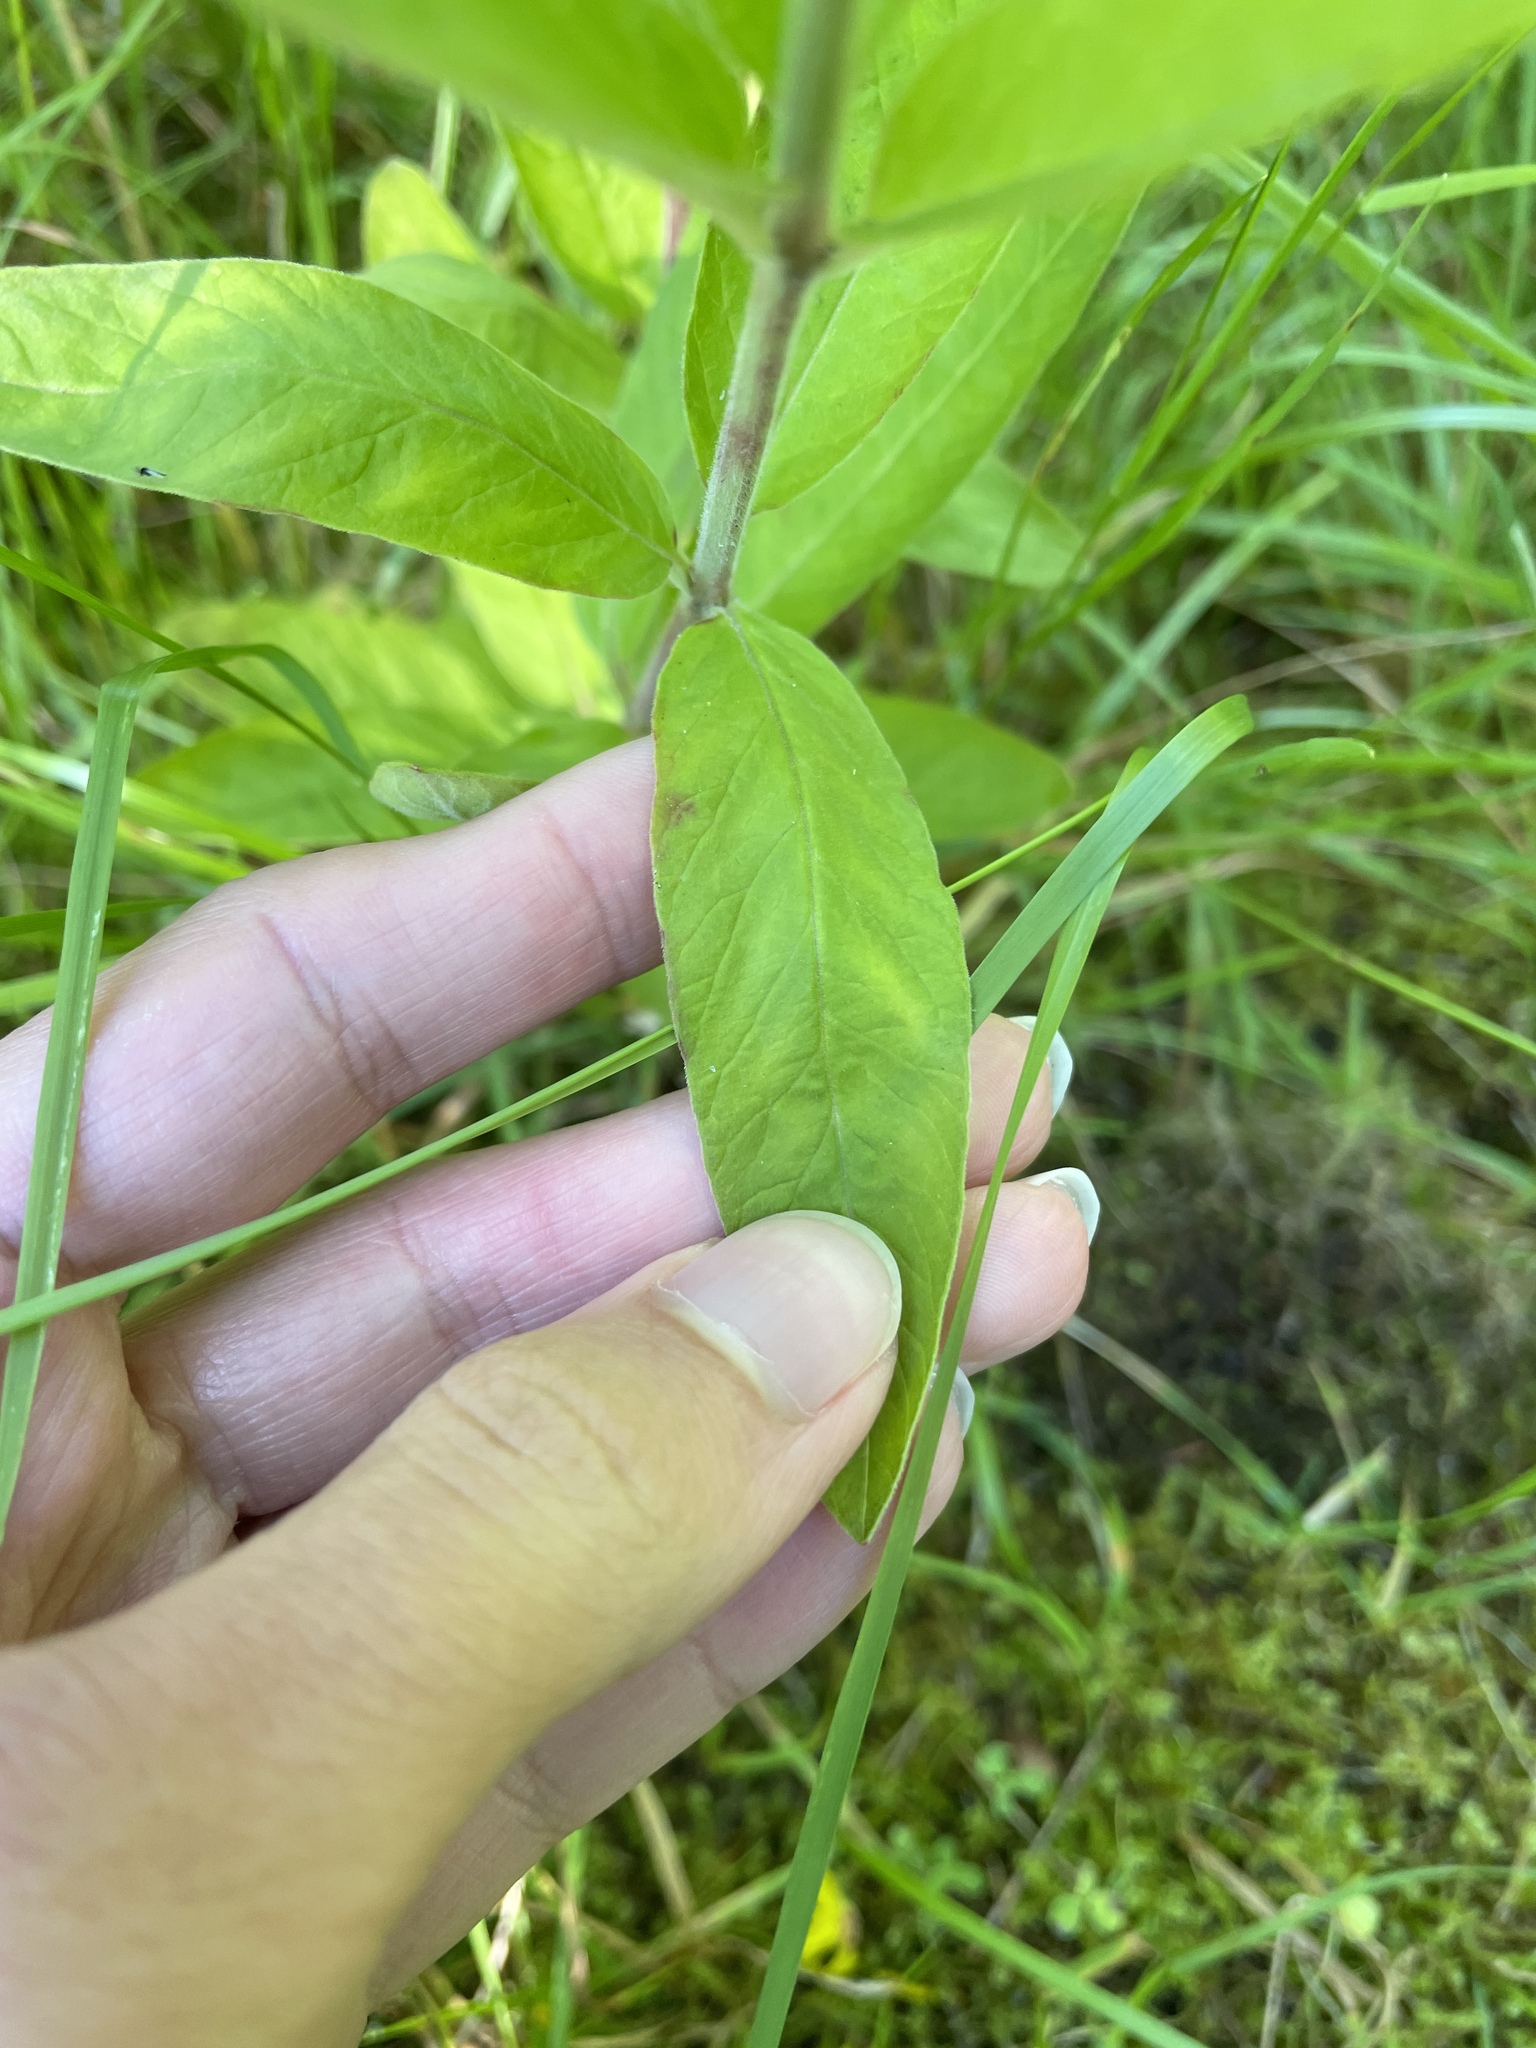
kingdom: Plantae
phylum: Tracheophyta
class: Magnoliopsida
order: Ericales
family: Primulaceae
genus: Lysimachia
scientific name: Lysimachia punctata
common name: Dotted loosestrife
